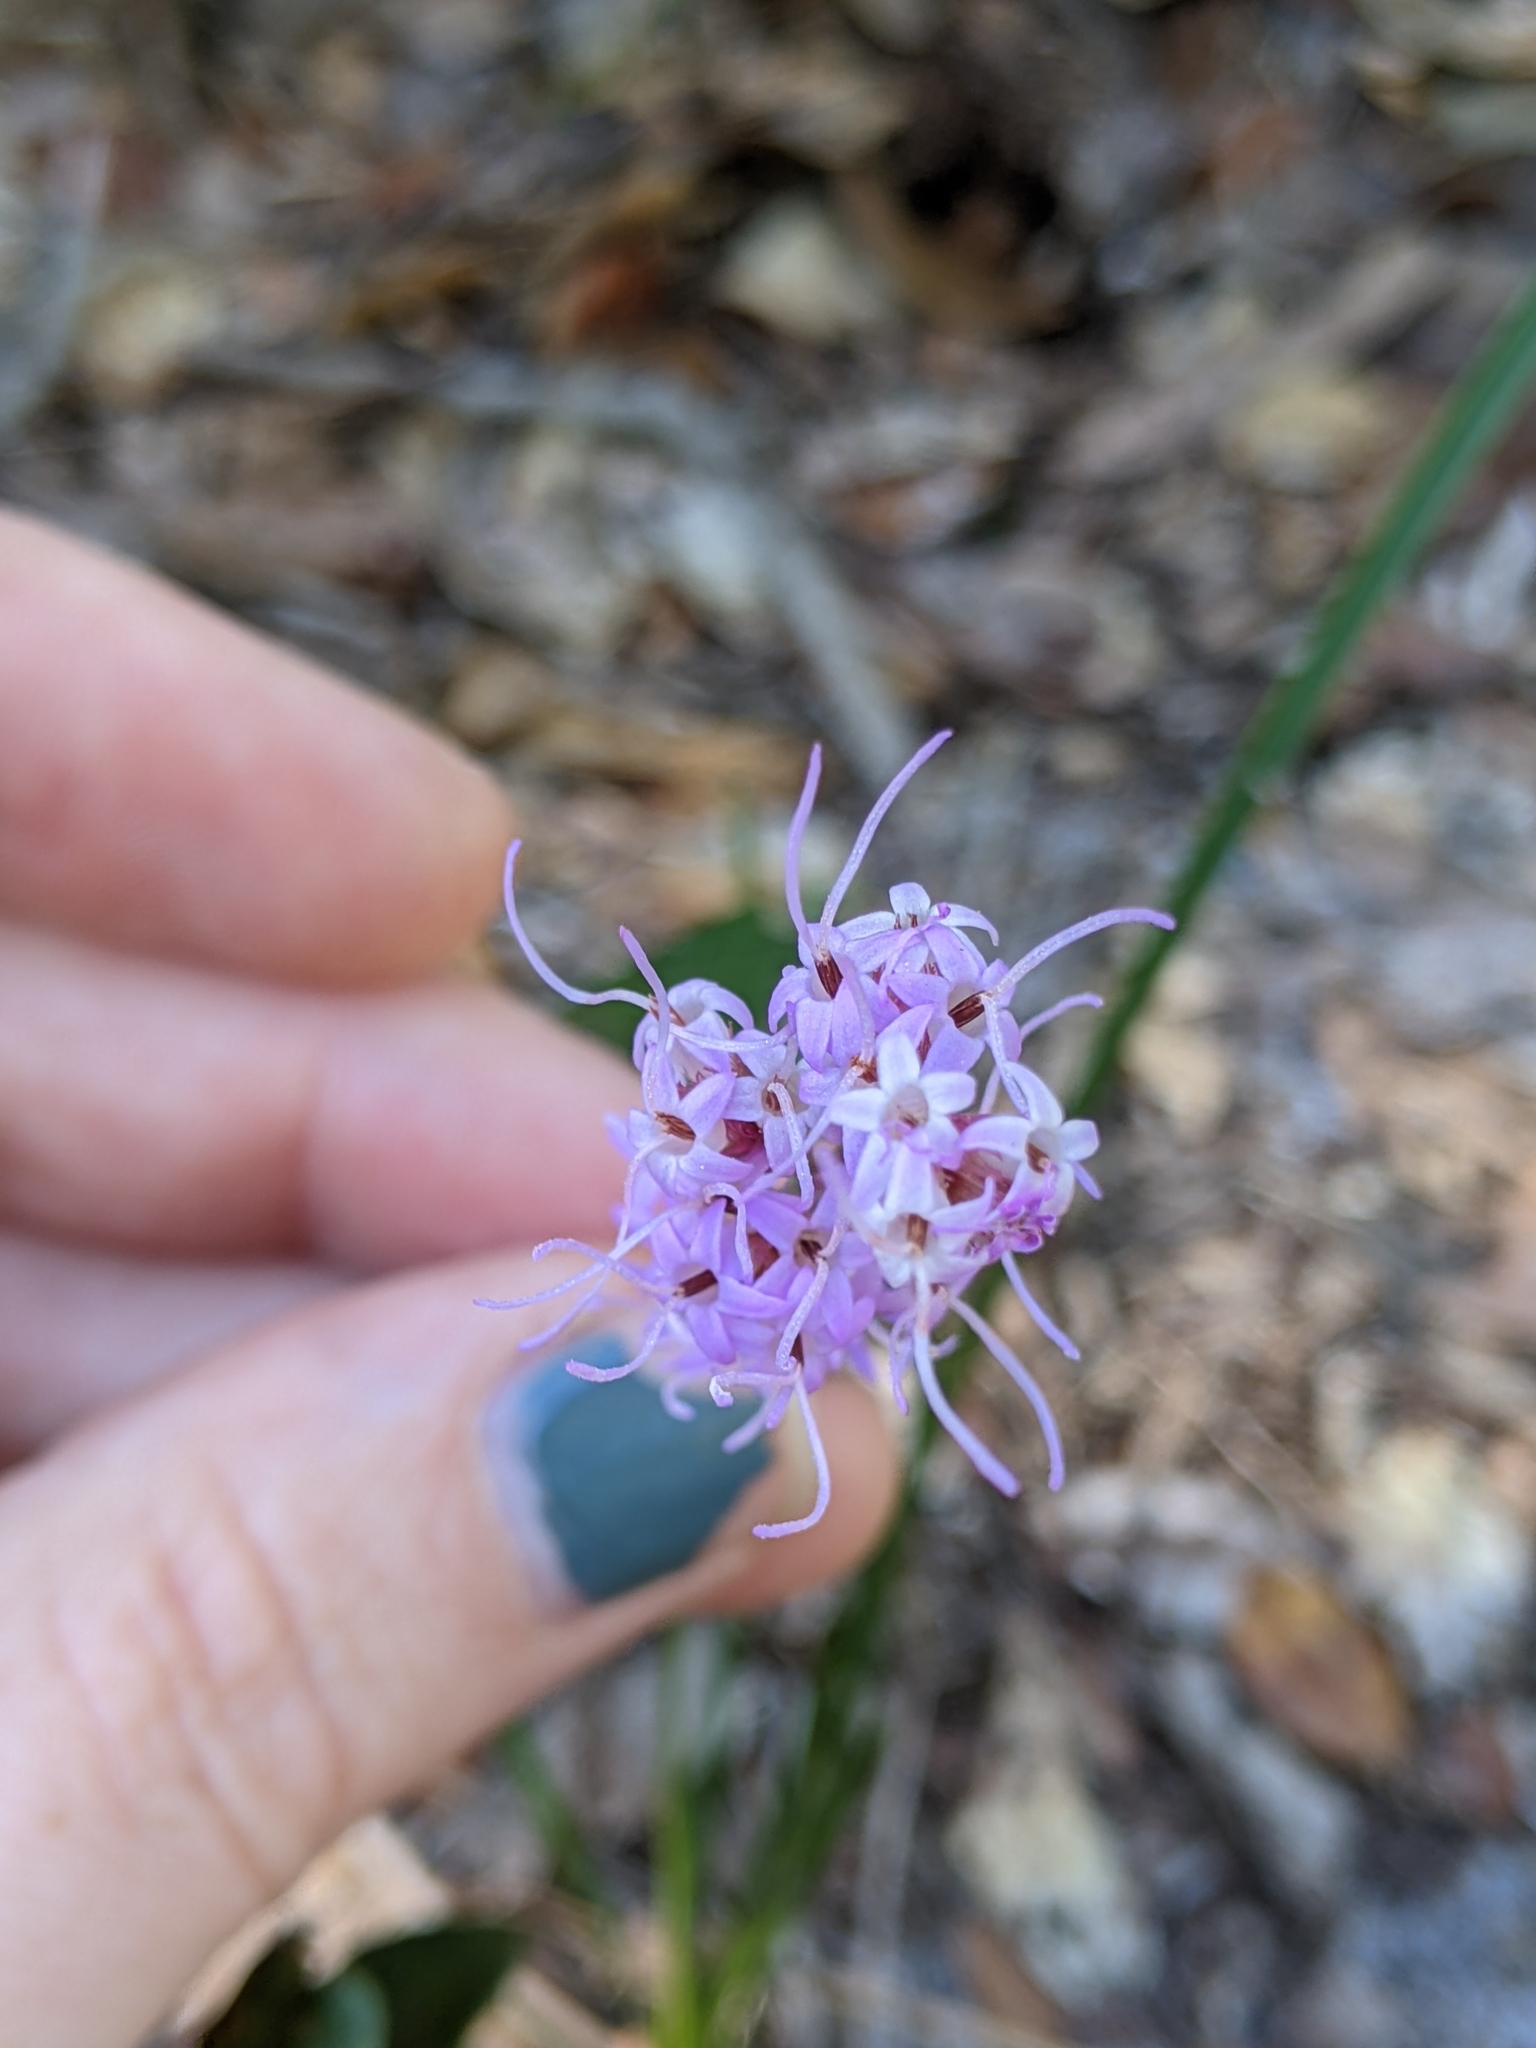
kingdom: Plantae
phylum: Tracheophyta
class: Magnoliopsida
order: Asterales
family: Asteraceae
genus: Liatris
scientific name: Liatris quadriflora
